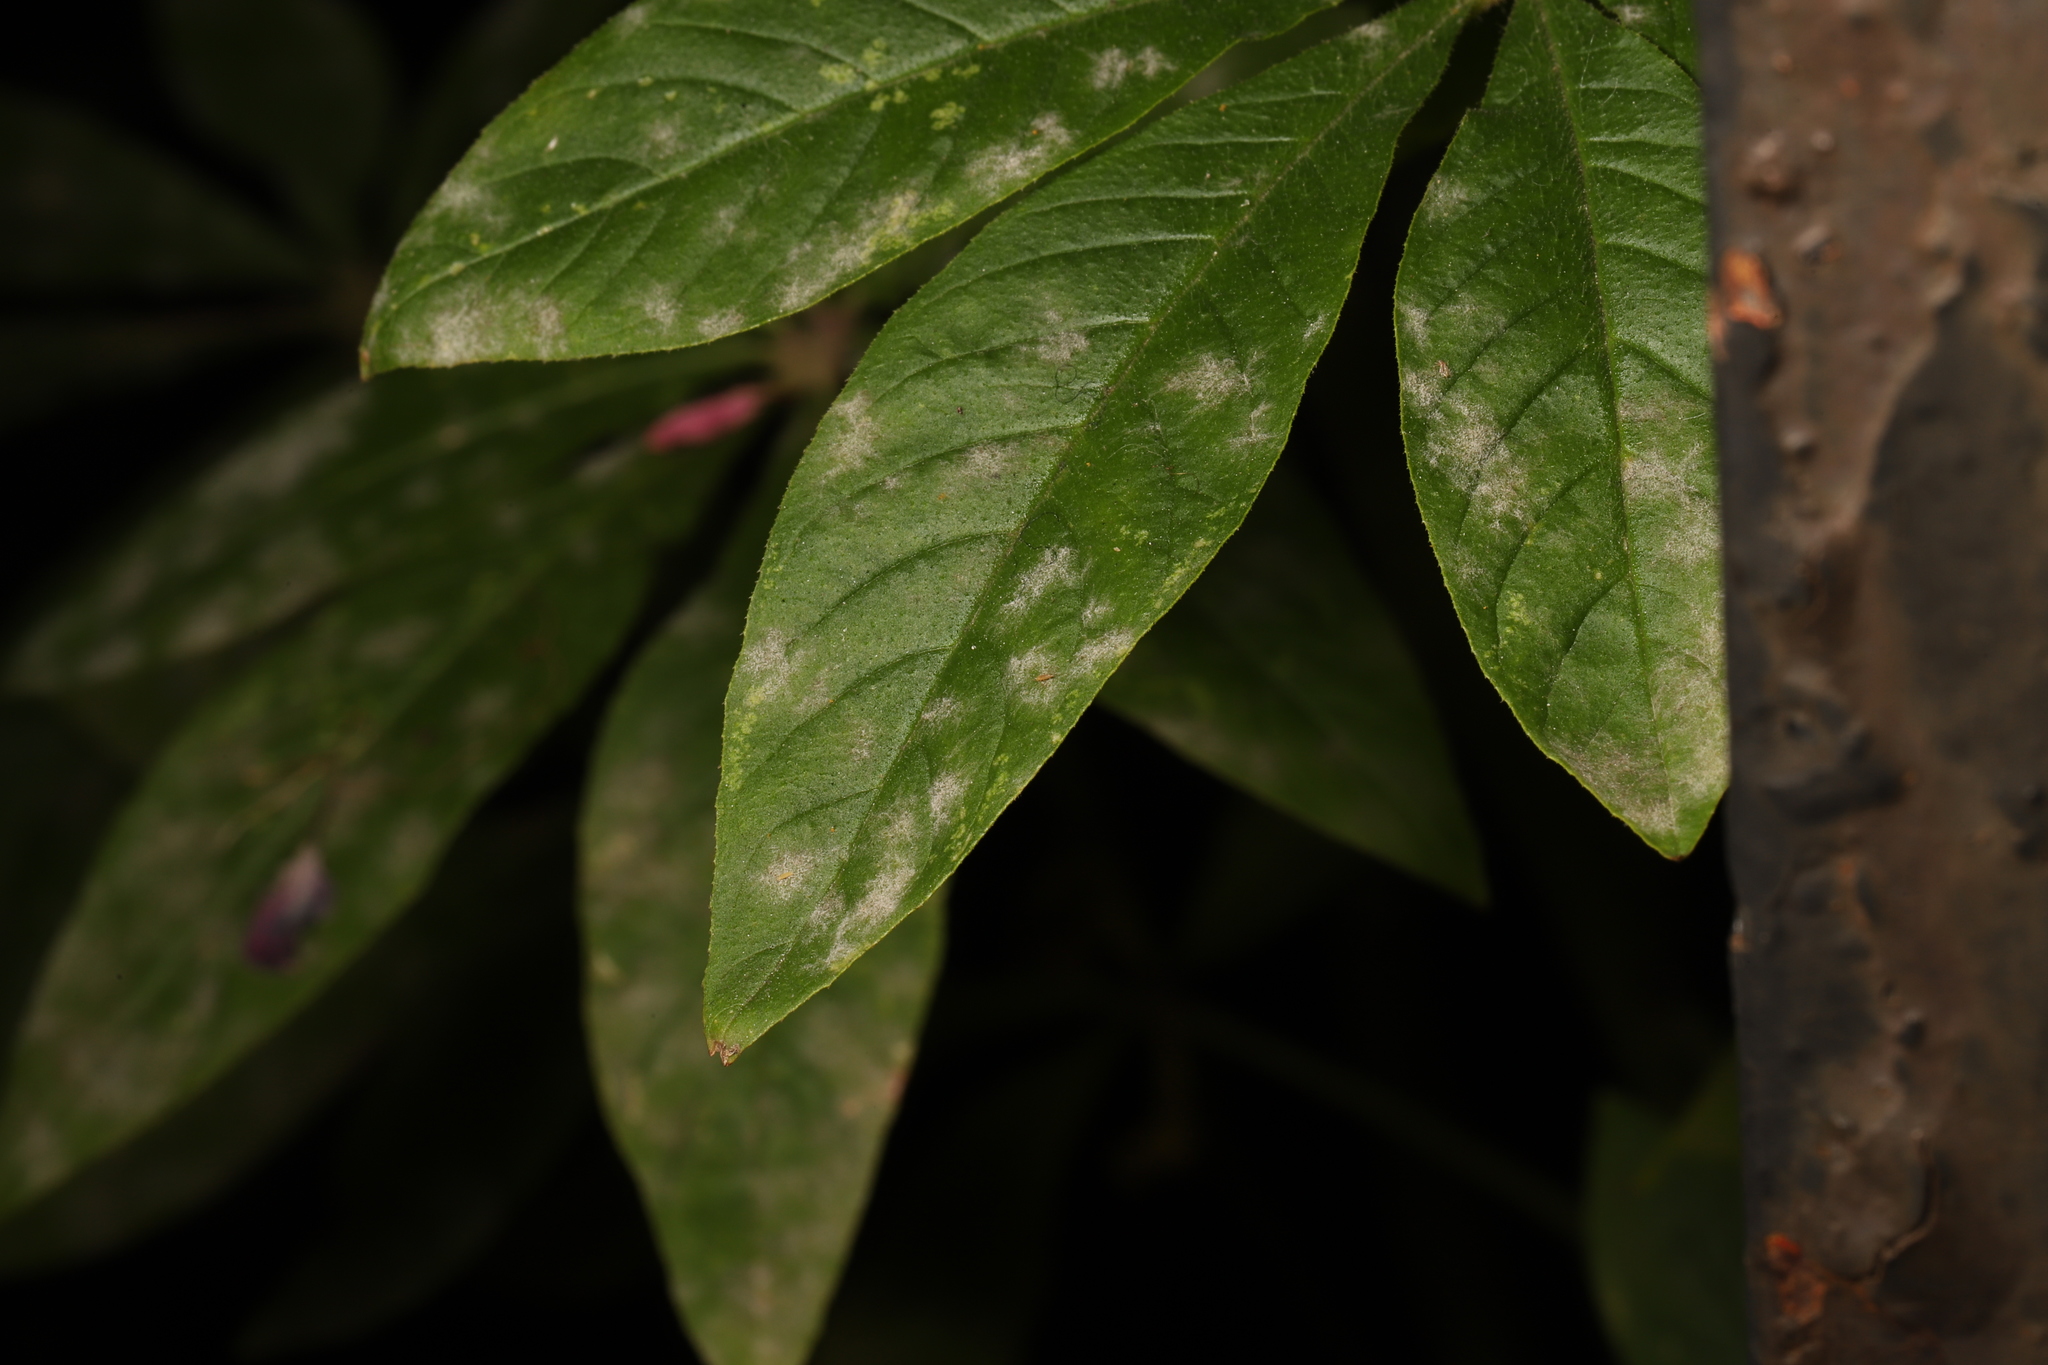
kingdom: Fungi
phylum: Ascomycota
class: Leotiomycetes
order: Helotiales
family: Erysiphaceae
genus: Erysiphe
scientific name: Erysiphe cruciferarum
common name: Brassica powdery mildew
